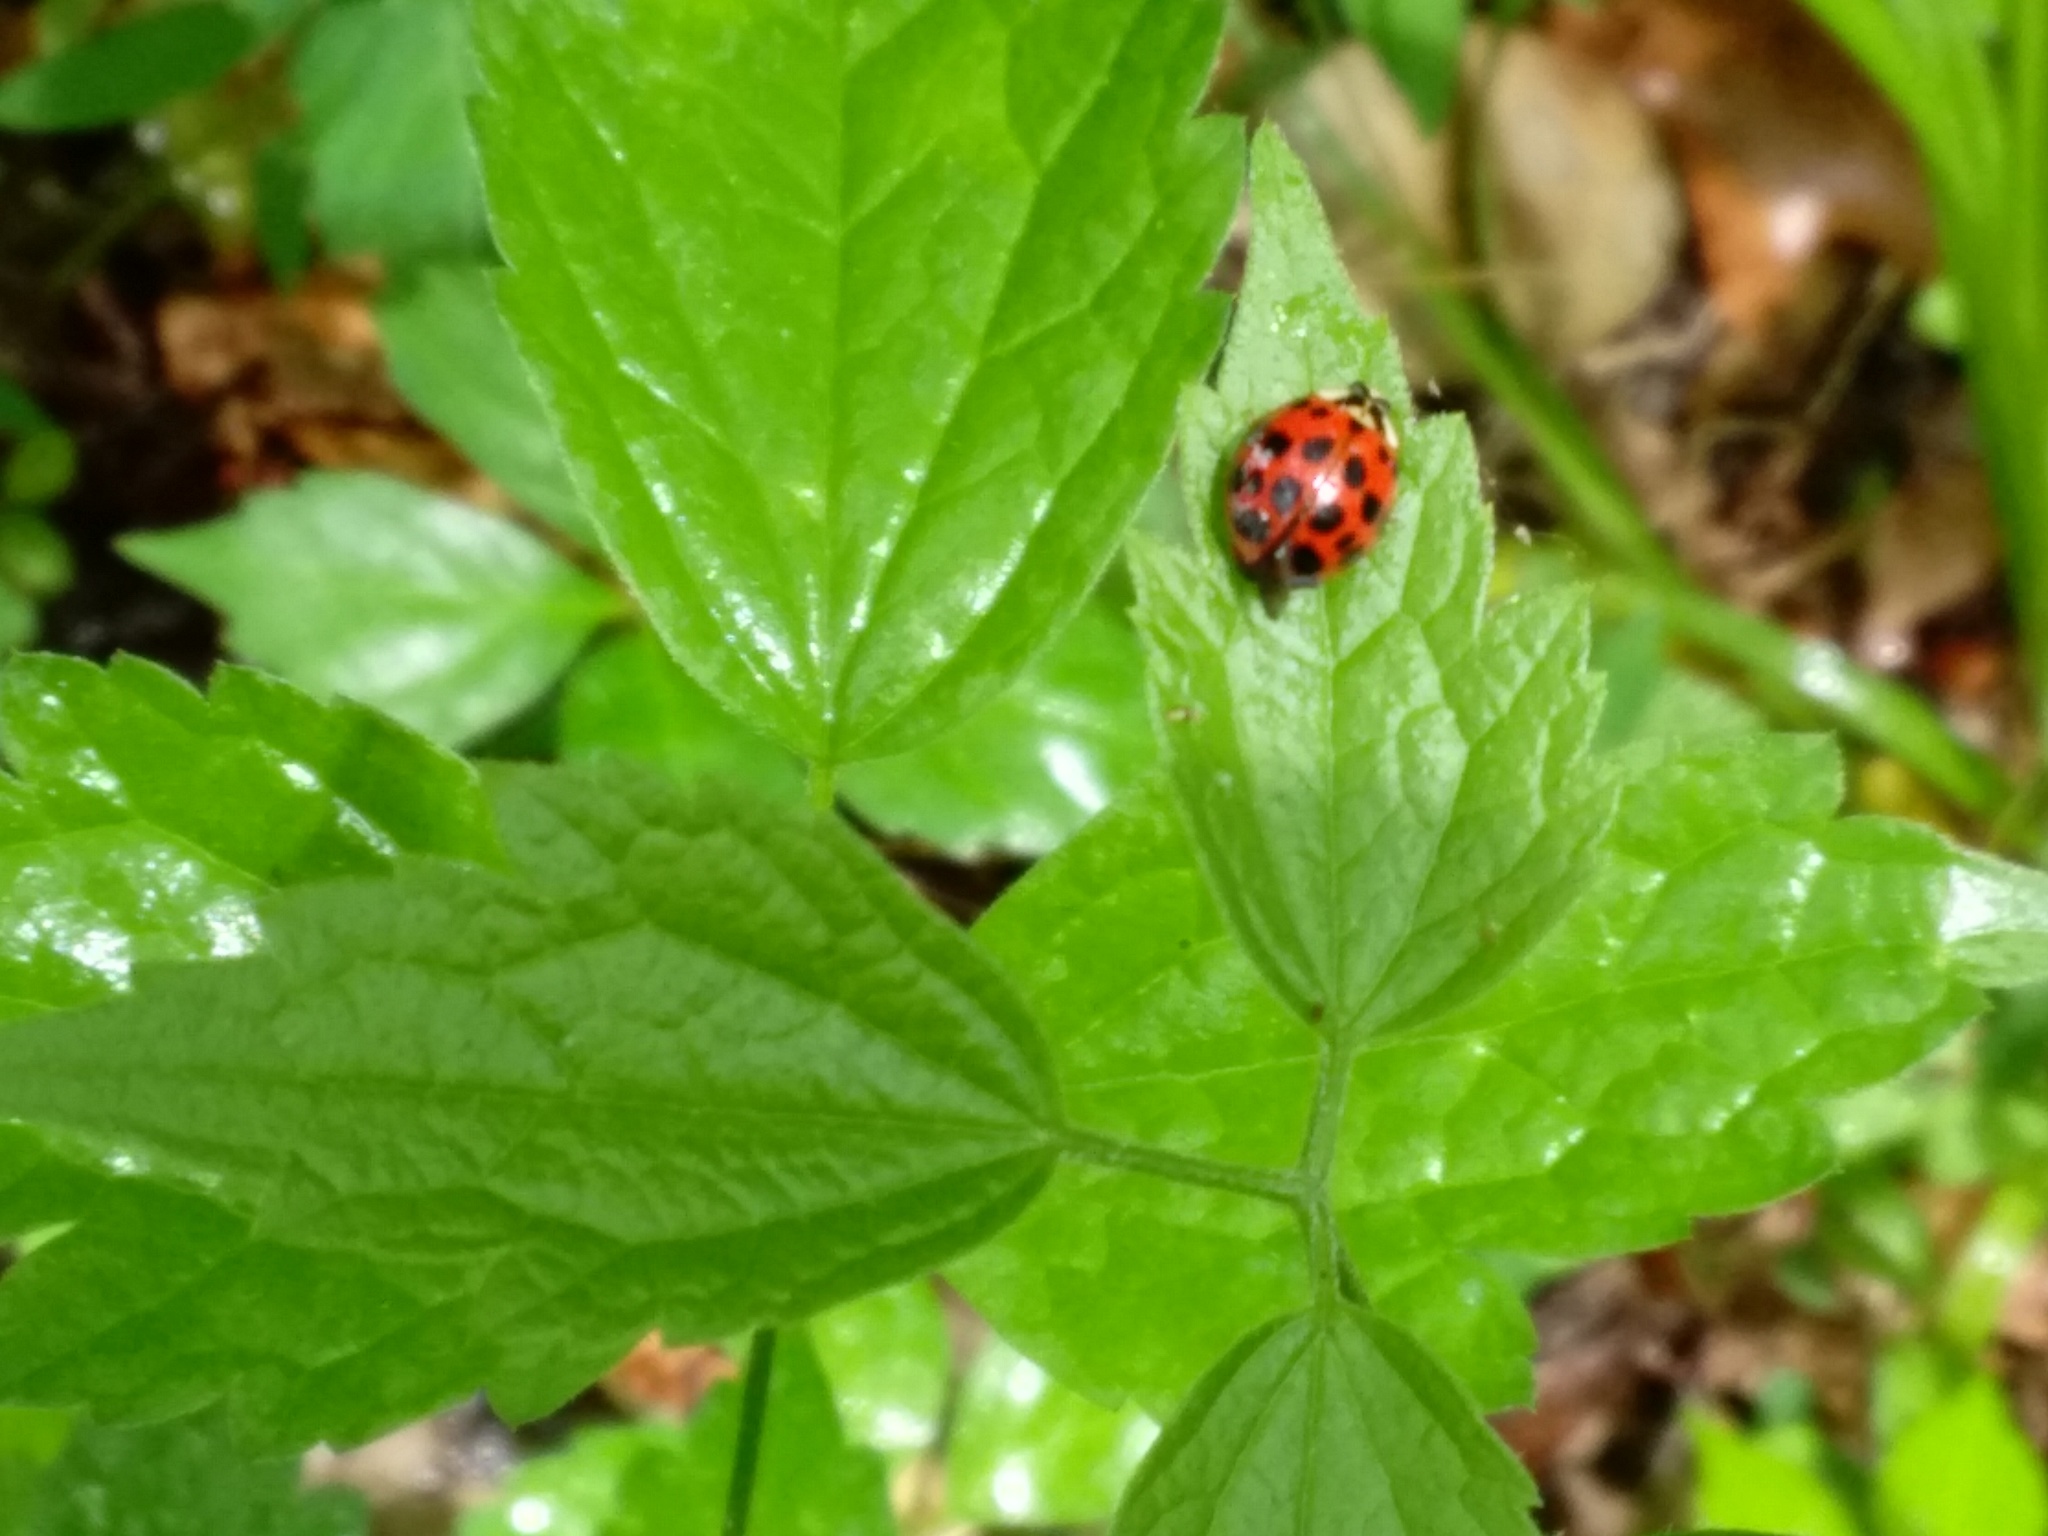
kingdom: Animalia
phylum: Arthropoda
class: Insecta
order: Coleoptera
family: Coccinellidae
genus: Harmonia
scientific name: Harmonia axyridis
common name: Harlequin ladybird
